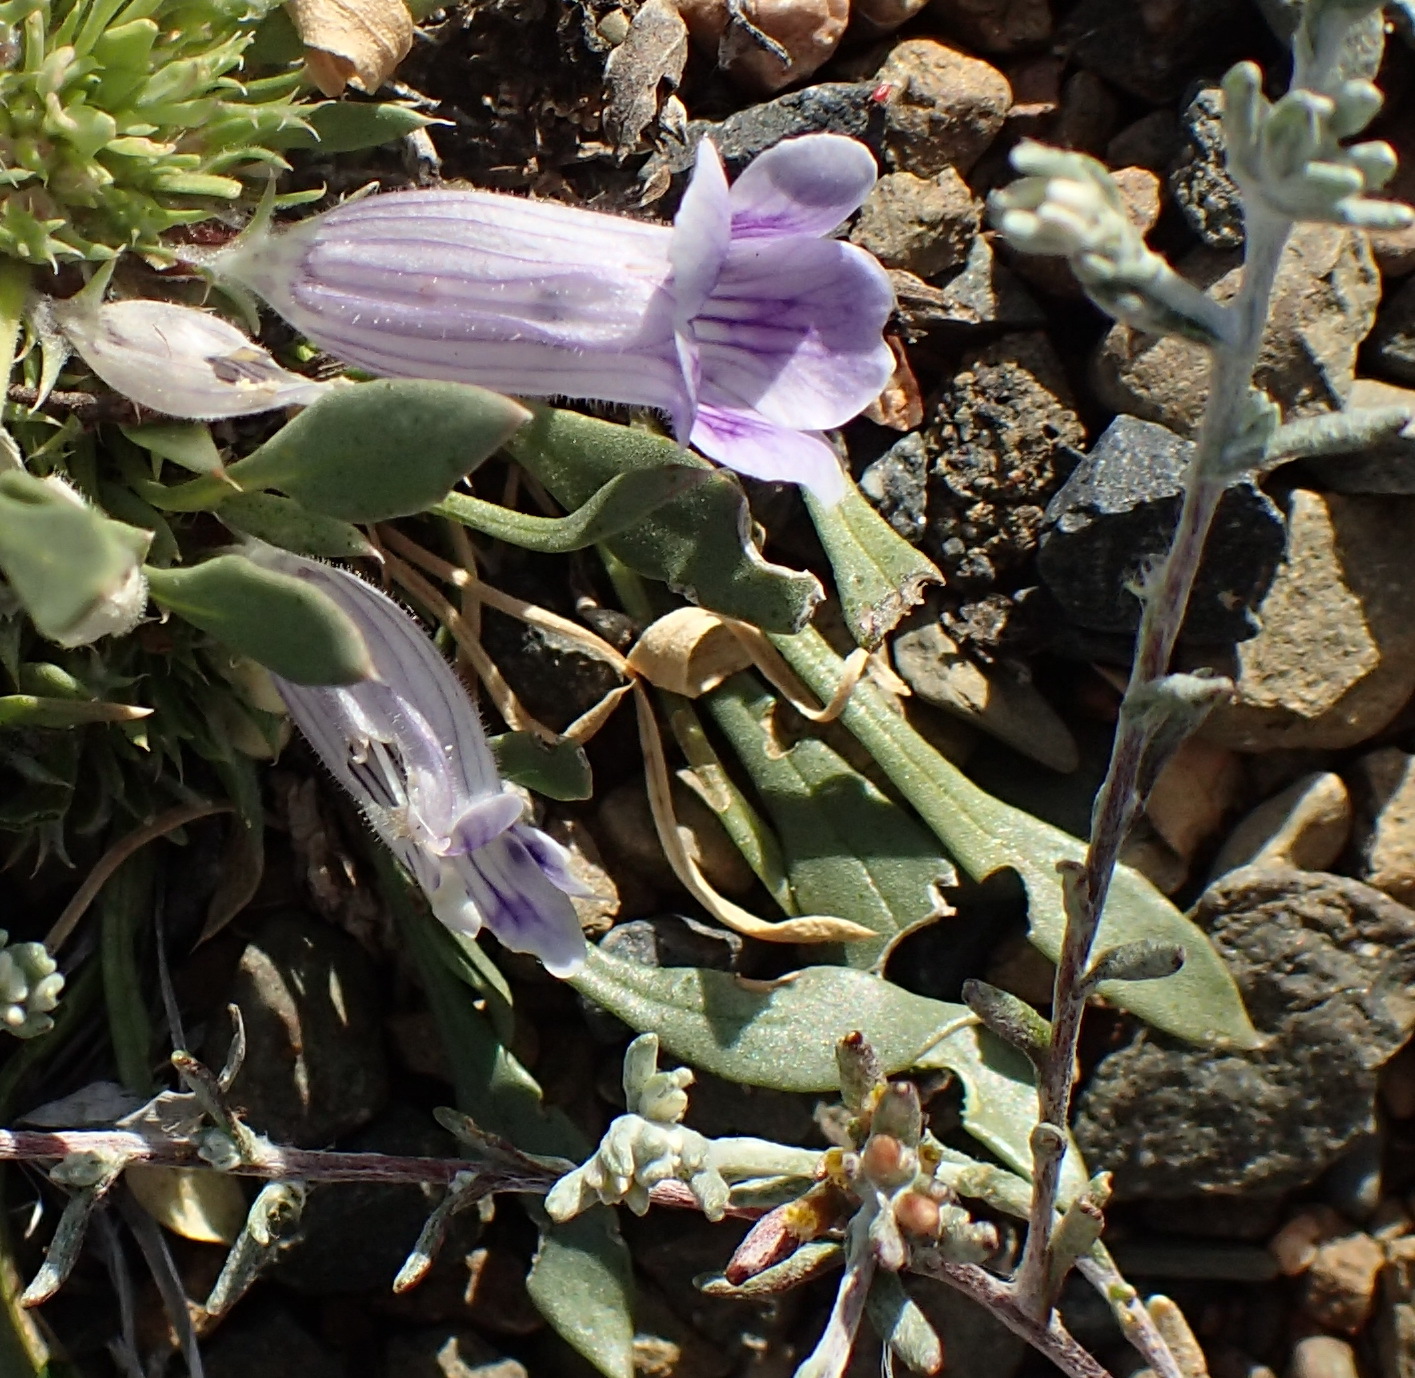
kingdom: Plantae
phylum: Tracheophyta
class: Magnoliopsida
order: Lamiales
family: Scrophulariaceae
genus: Aptosimum
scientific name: Aptosimum indivisum
